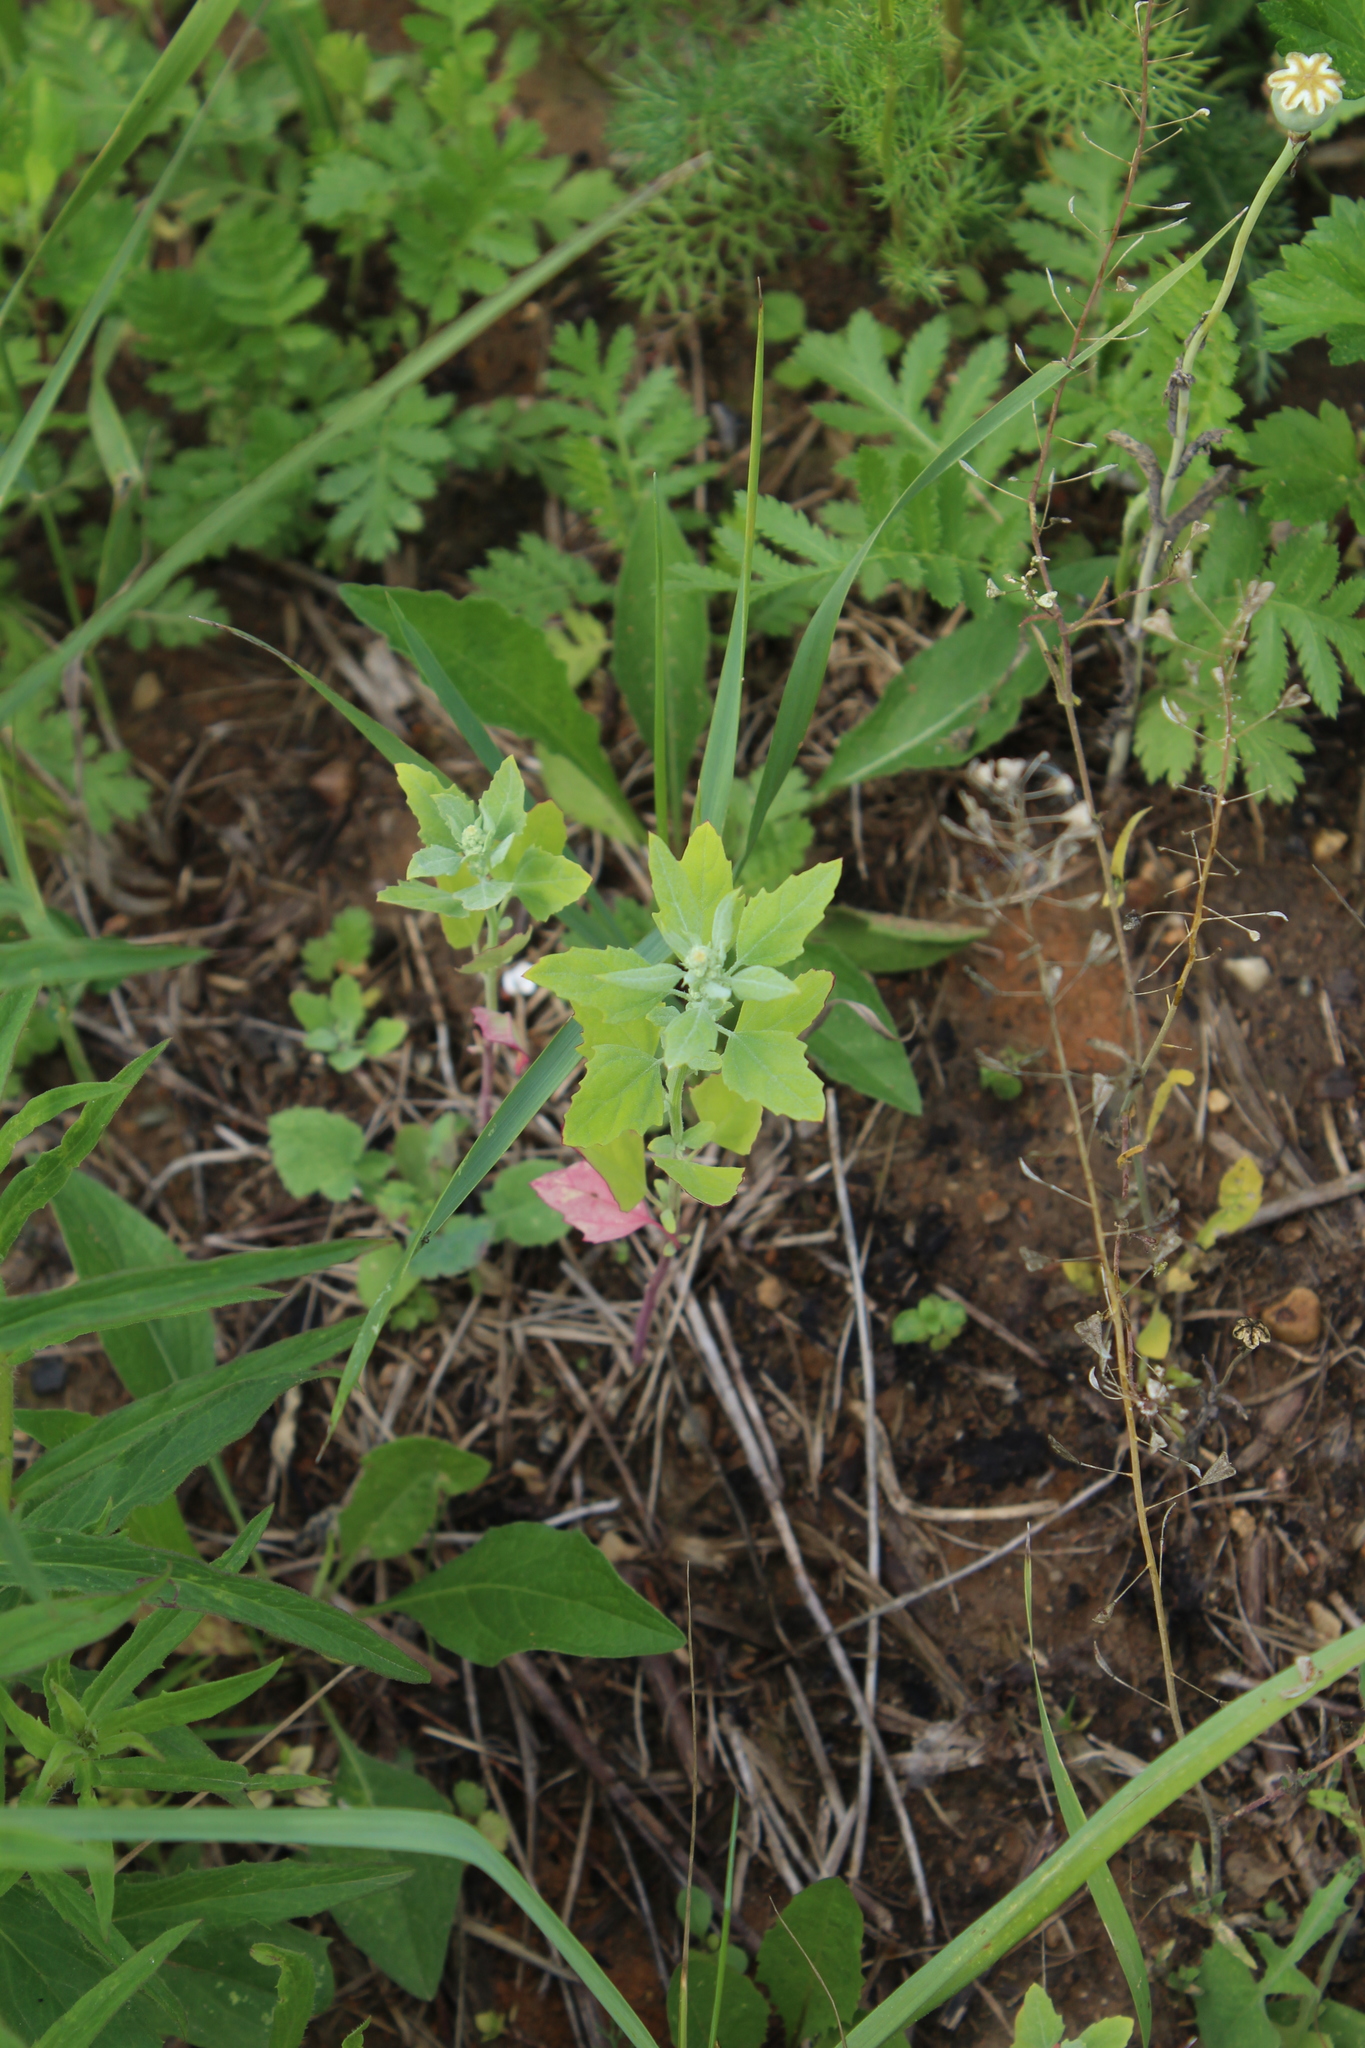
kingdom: Plantae
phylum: Tracheophyta
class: Magnoliopsida
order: Caryophyllales
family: Amaranthaceae
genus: Chenopodium
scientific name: Chenopodium album
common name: Fat-hen
